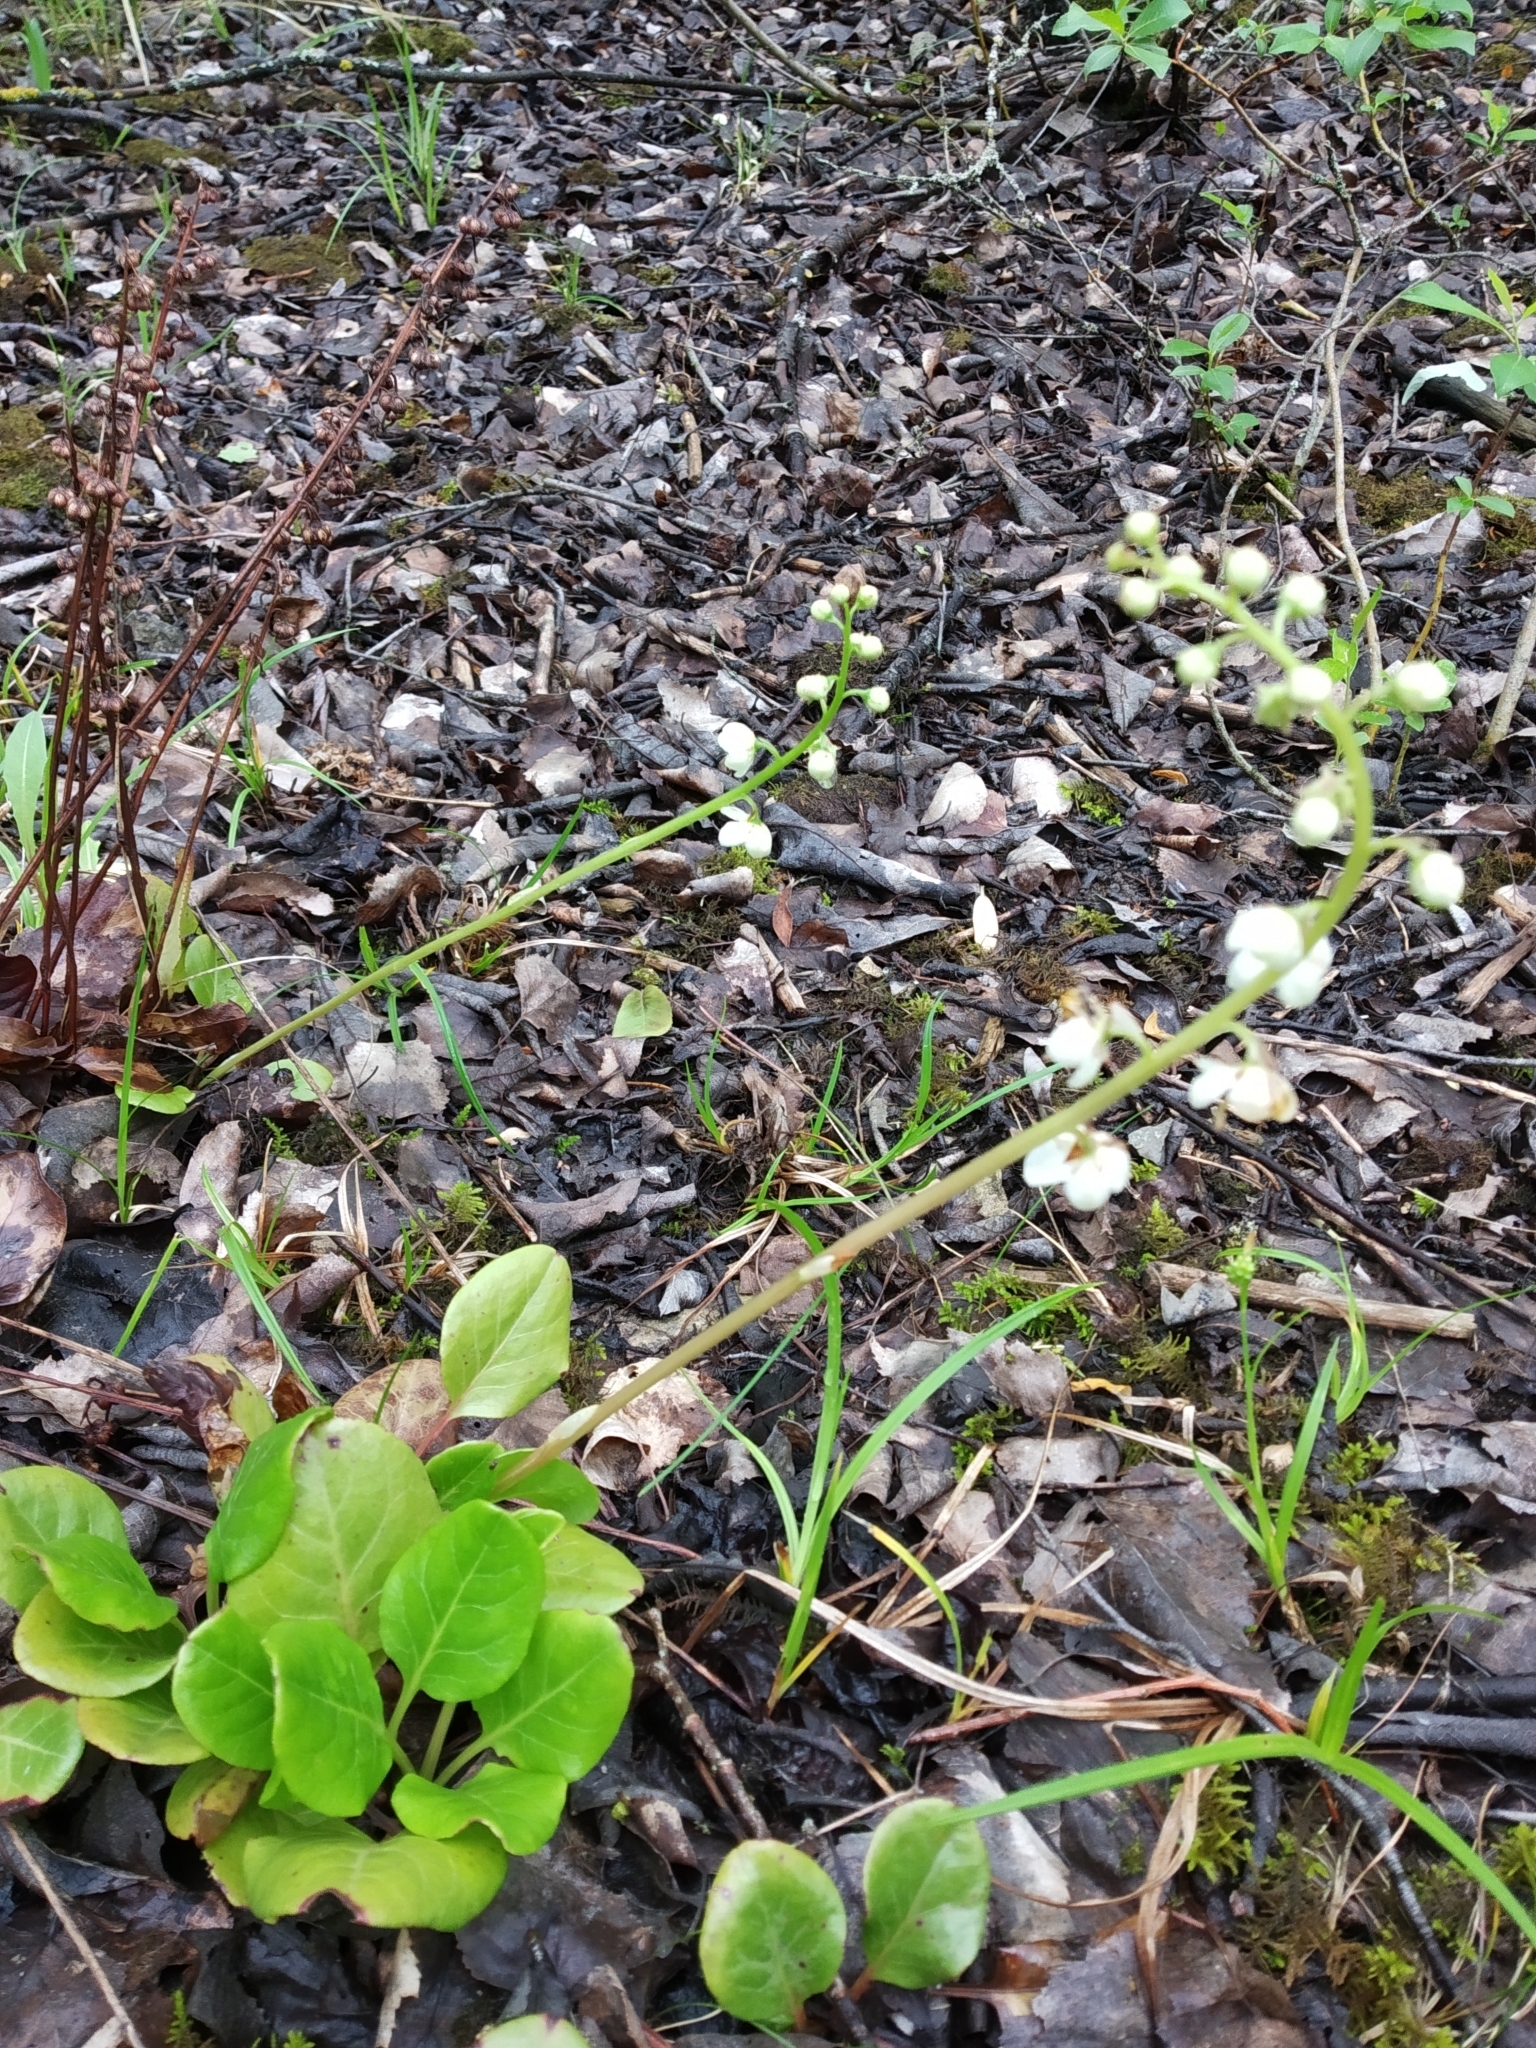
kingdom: Plantae
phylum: Tracheophyta
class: Magnoliopsida
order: Ericales
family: Ericaceae
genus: Pyrola
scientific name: Pyrola rotundifolia
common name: Round-leaved wintergreen
